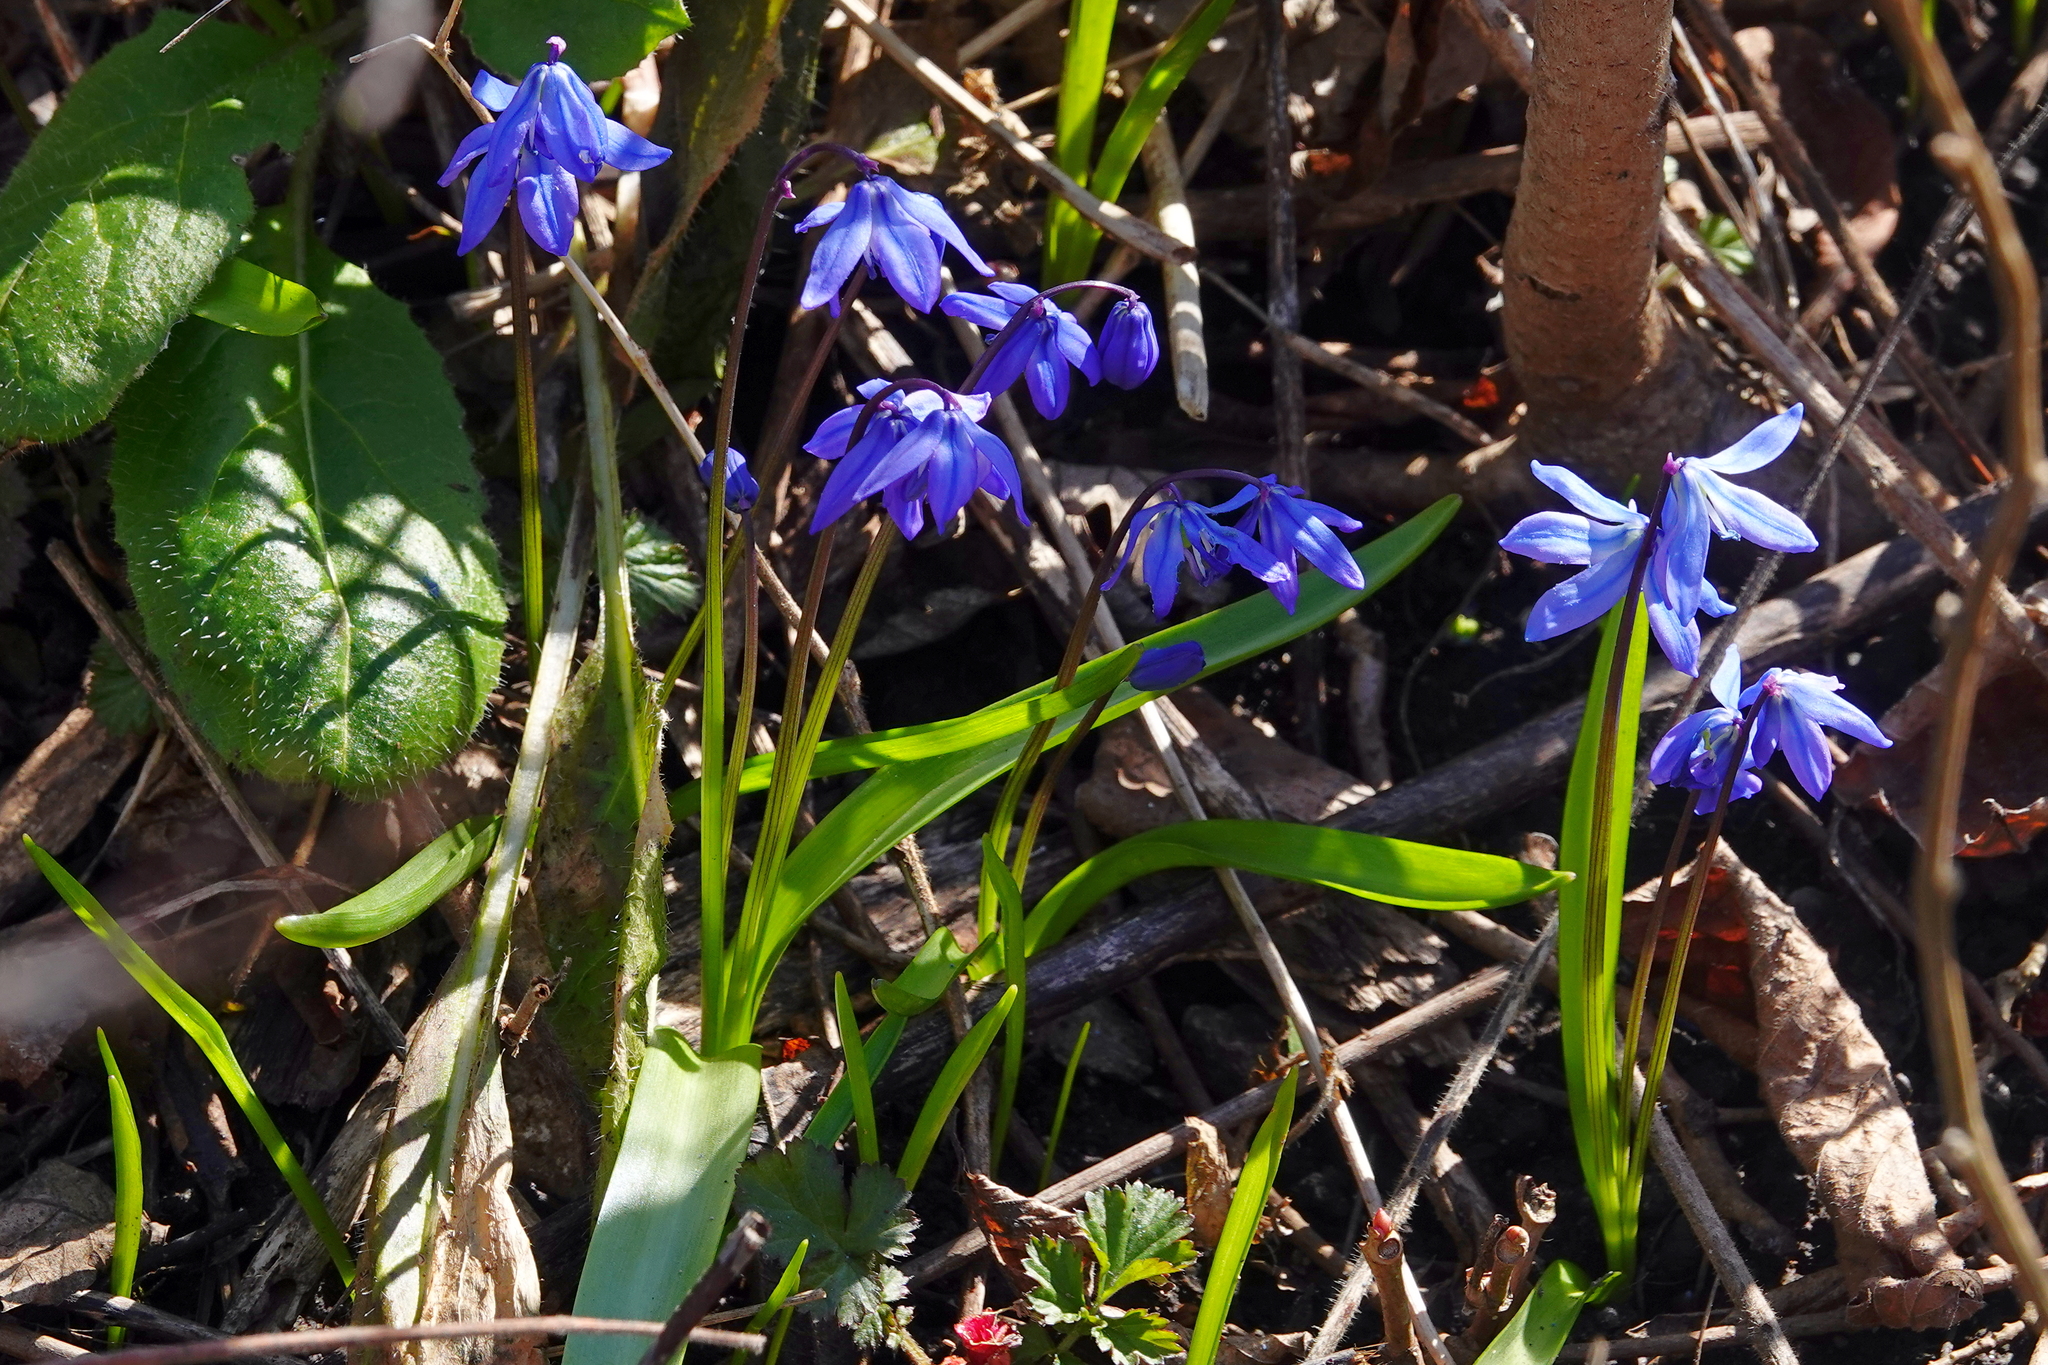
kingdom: Plantae
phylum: Tracheophyta
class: Liliopsida
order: Asparagales
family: Asparagaceae
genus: Scilla
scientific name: Scilla siberica
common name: Siberian squill
